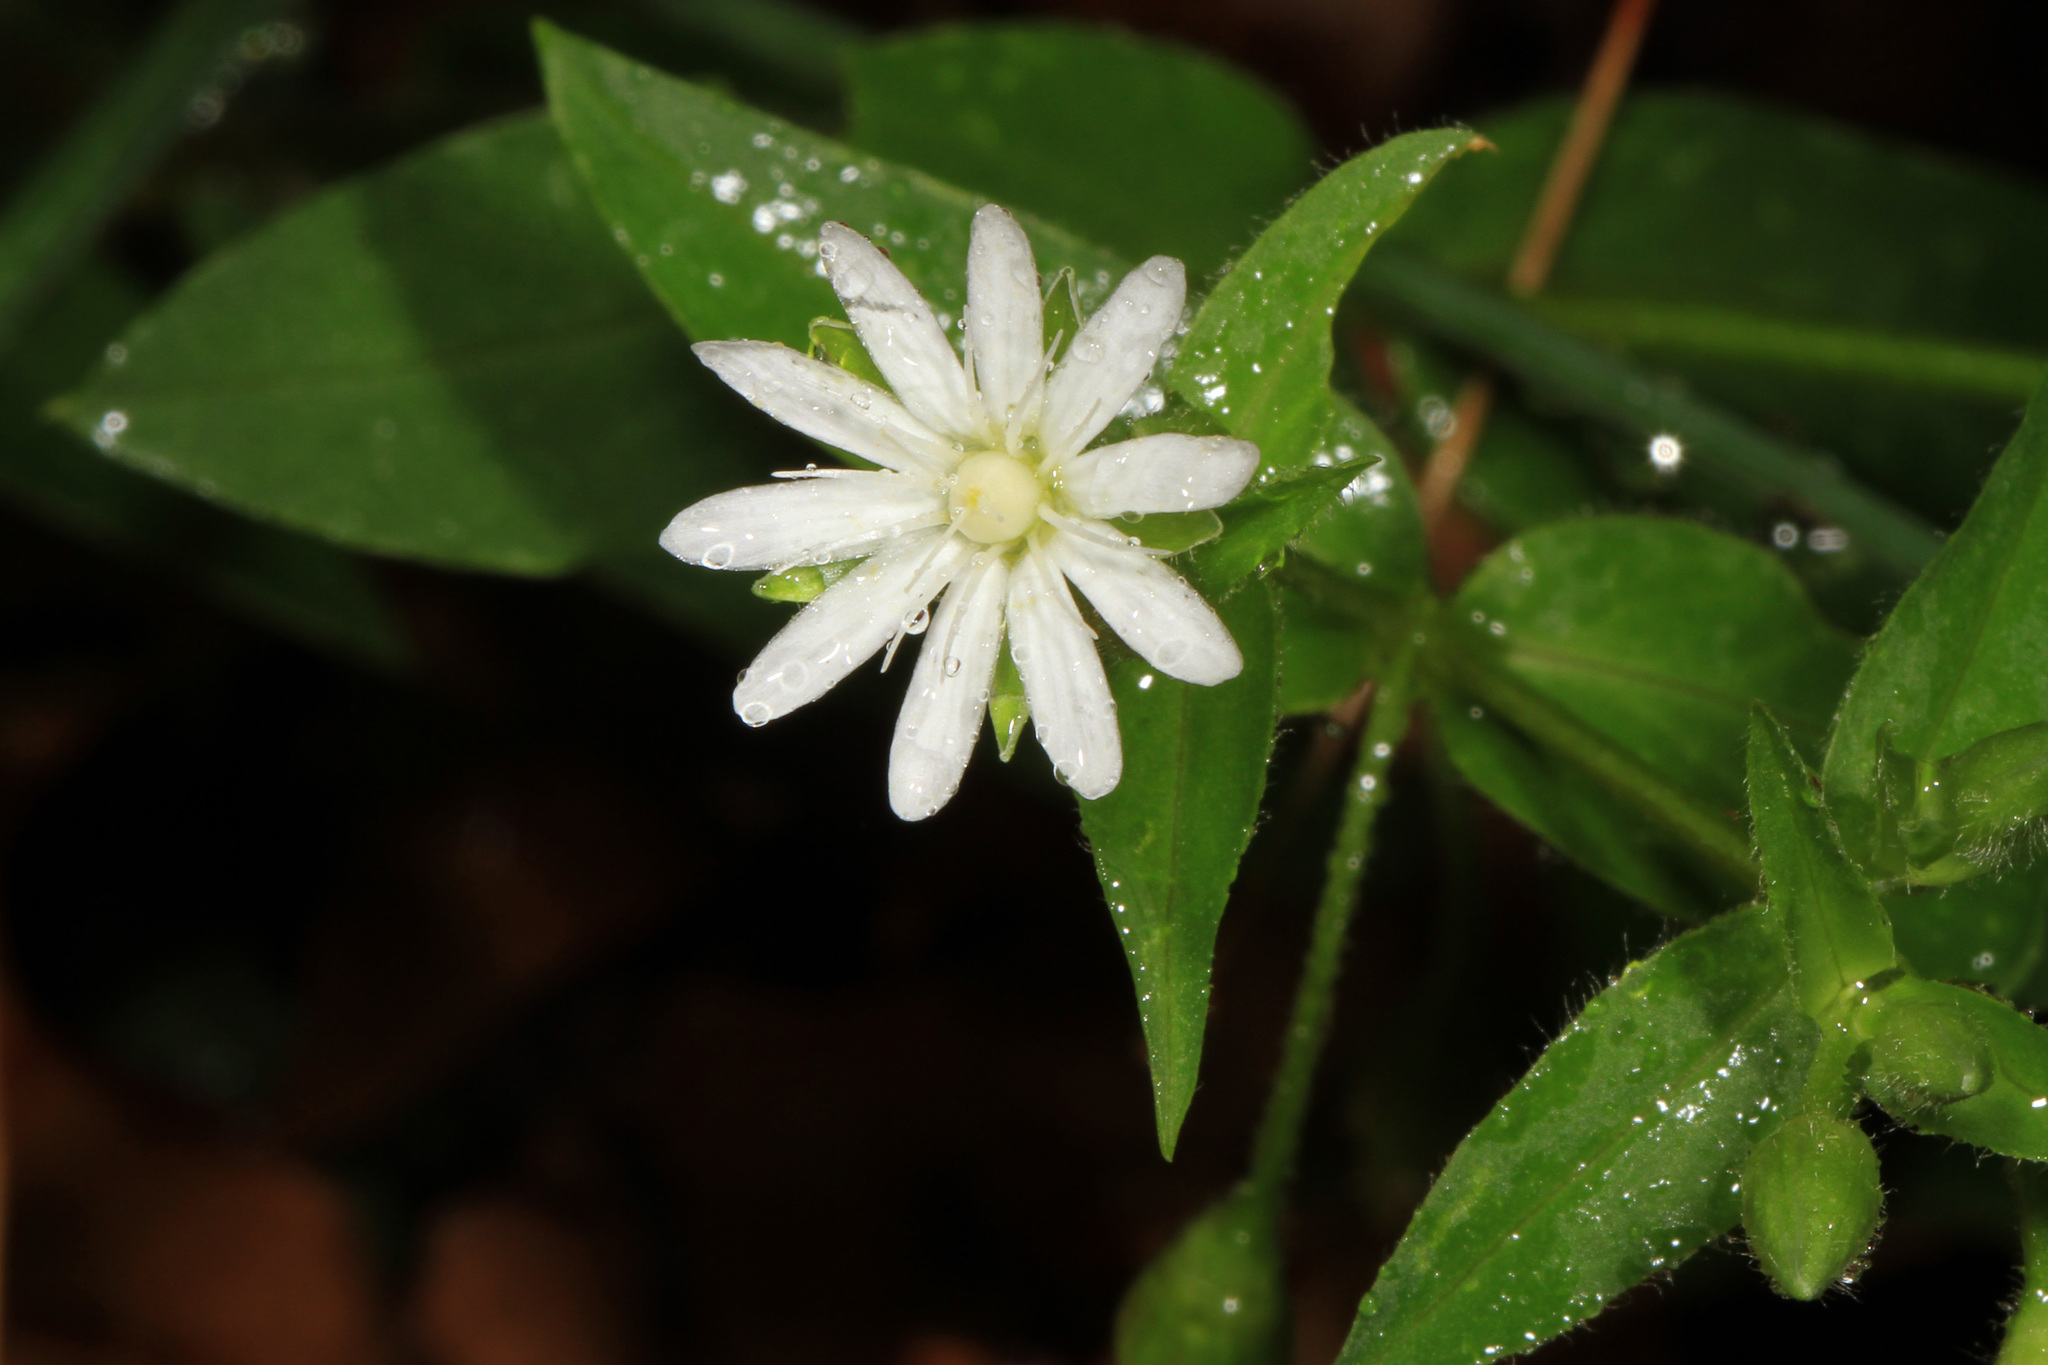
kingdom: Plantae
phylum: Tracheophyta
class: Magnoliopsida
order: Caryophyllales
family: Caryophyllaceae
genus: Stellaria
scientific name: Stellaria pubera
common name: Star chickweed
